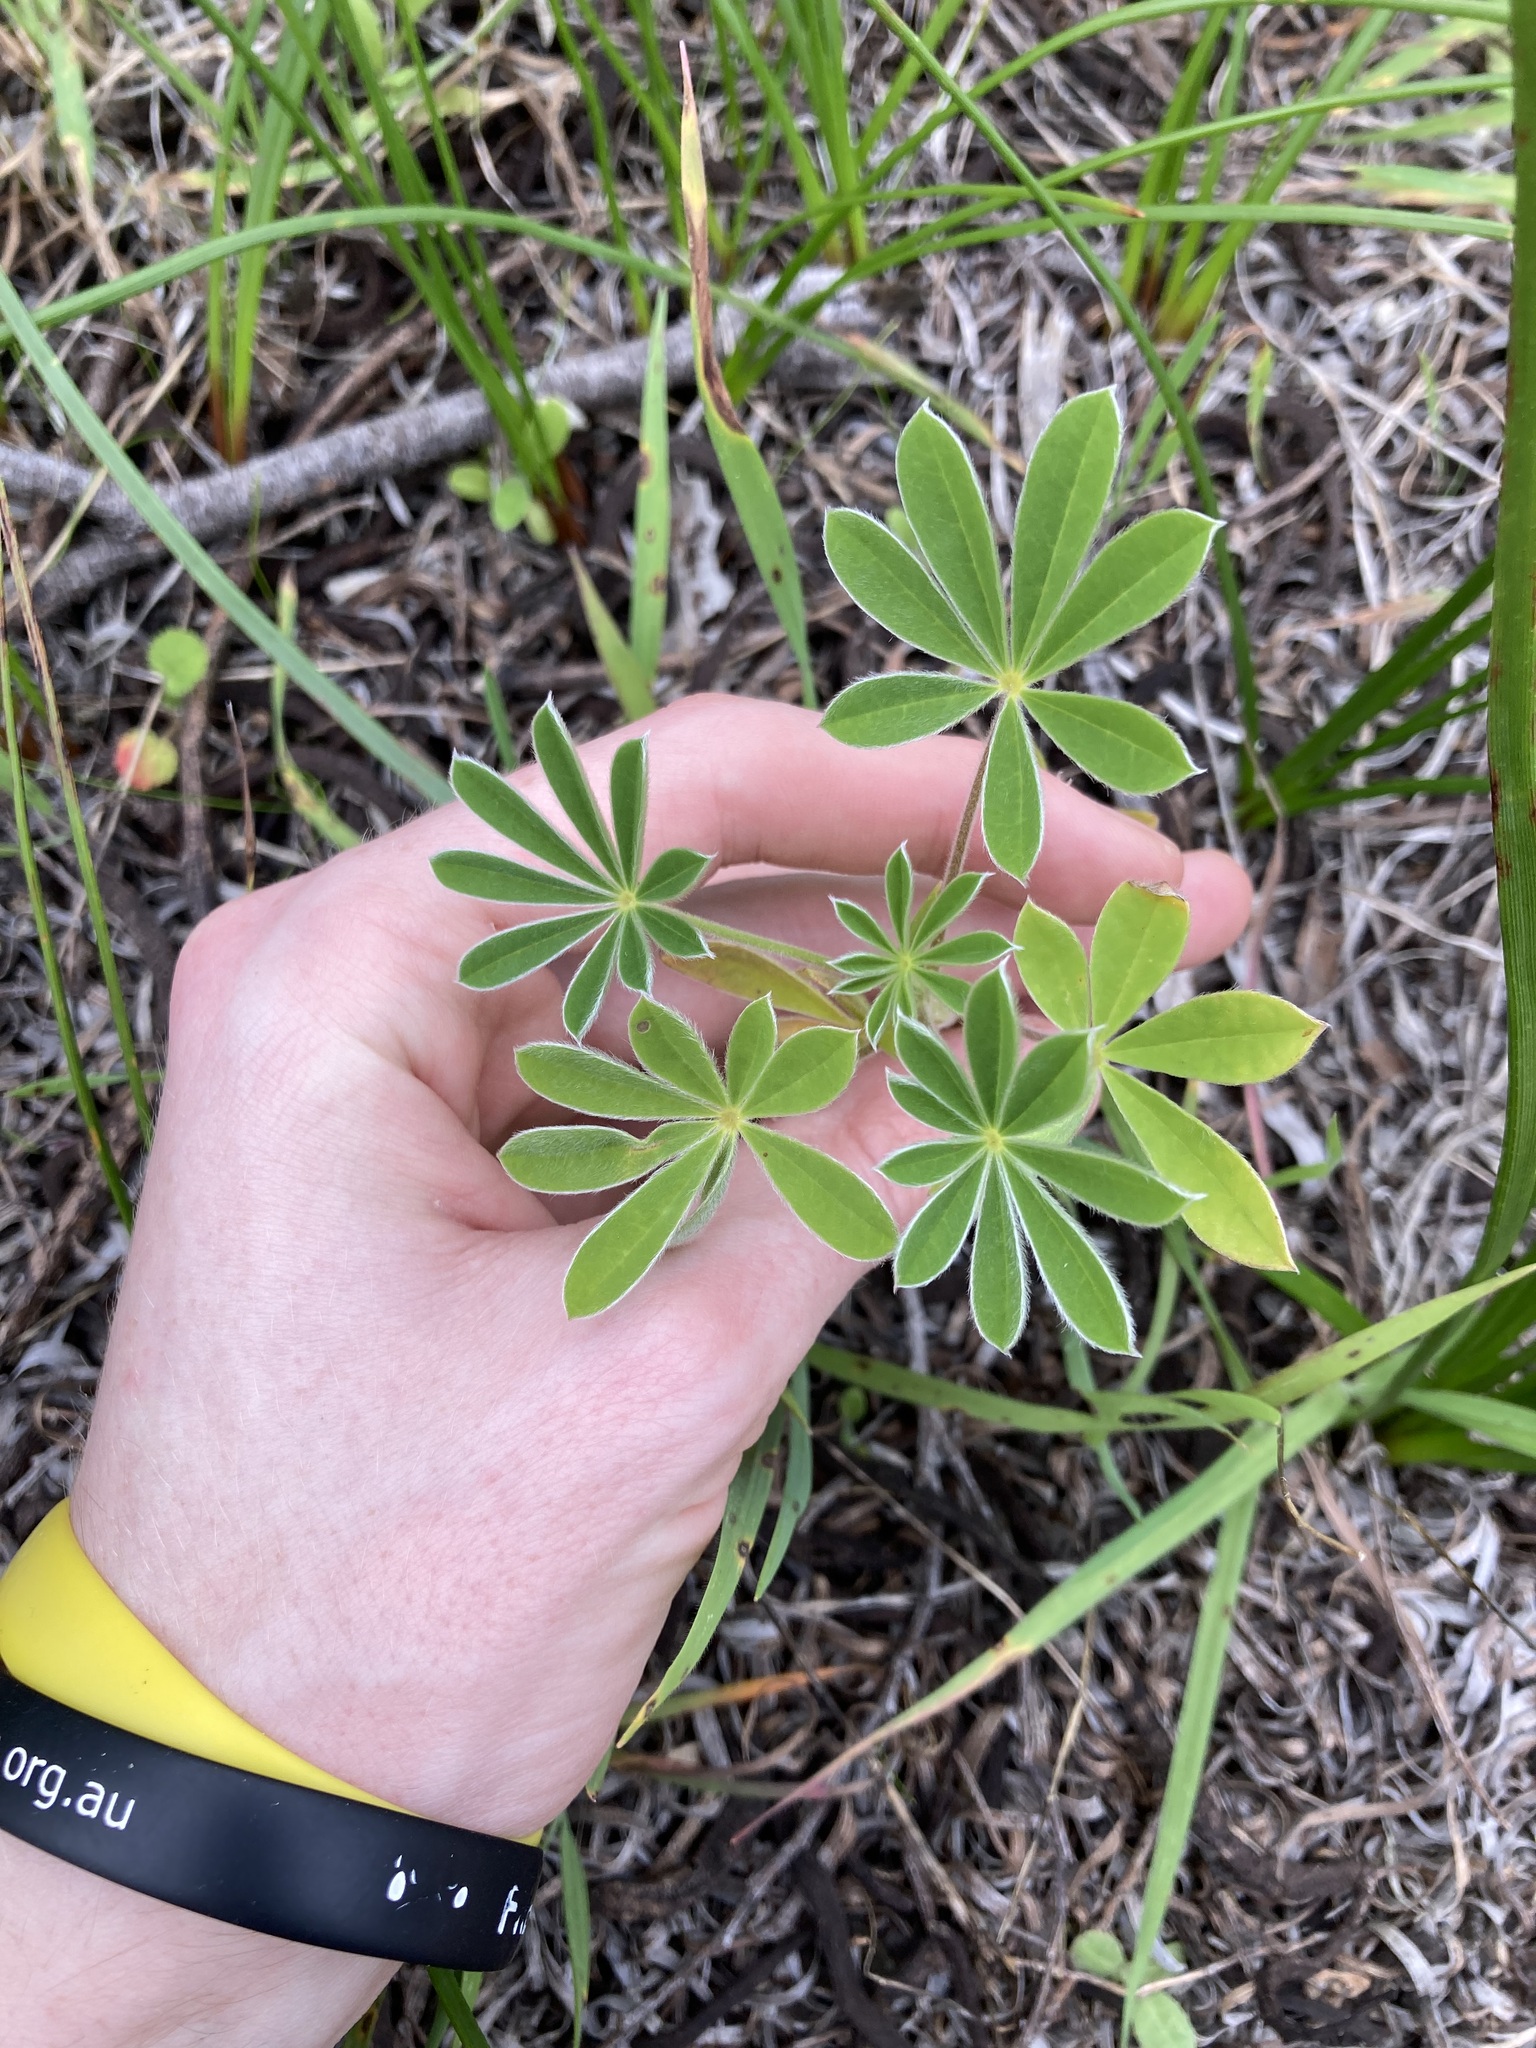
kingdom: Plantae
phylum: Tracheophyta
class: Magnoliopsida
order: Fabales
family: Fabaceae
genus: Lupinus
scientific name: Lupinus cosentinii
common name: Hairy blue lupin
